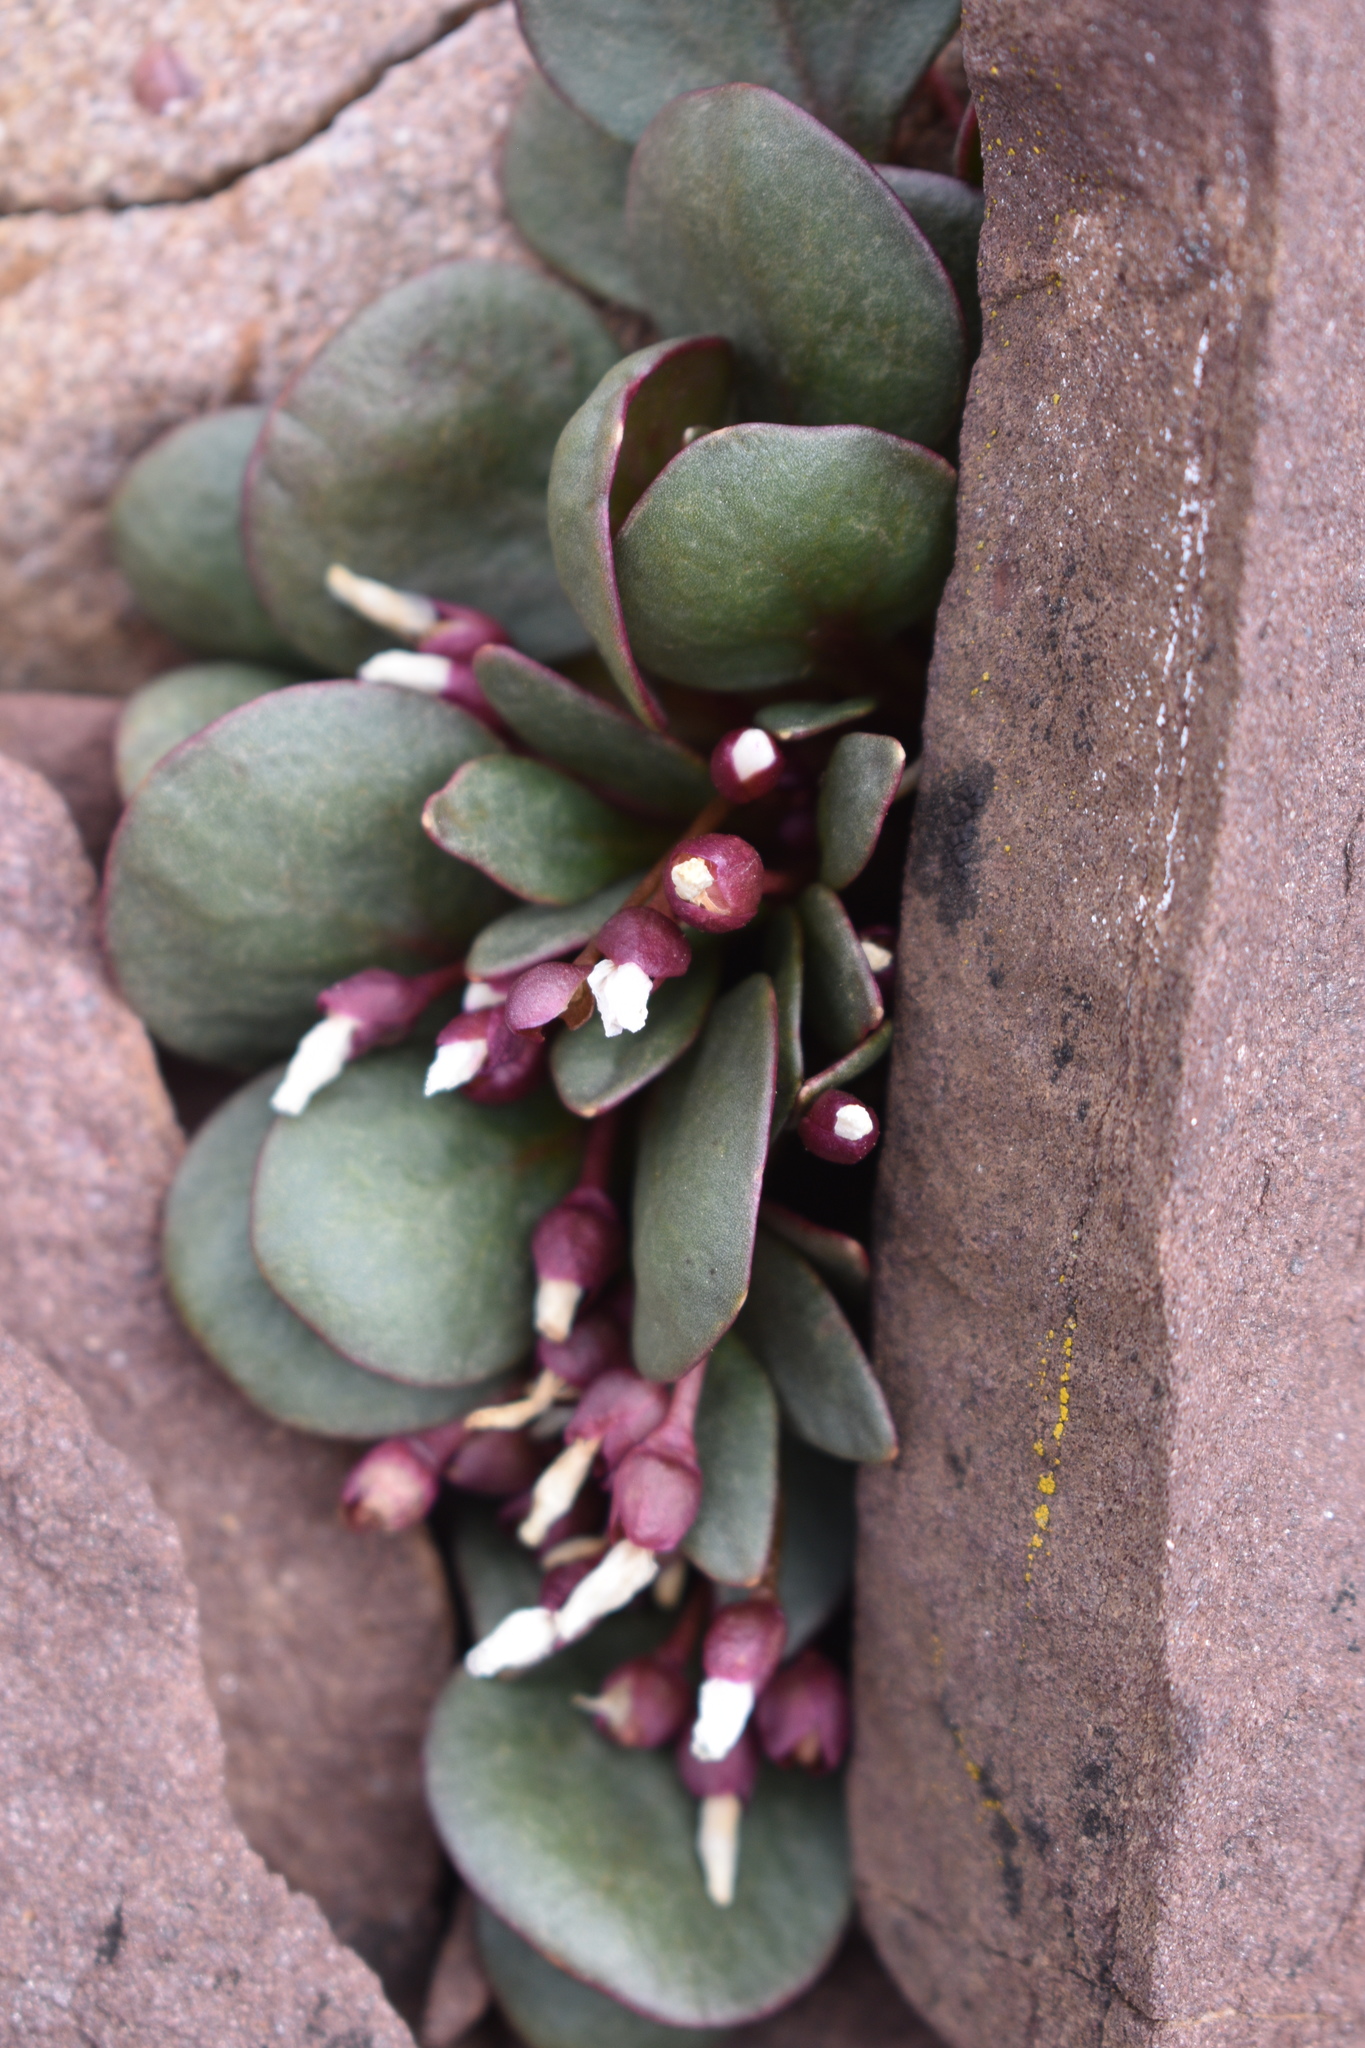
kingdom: Plantae
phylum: Tracheophyta
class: Magnoliopsida
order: Caryophyllales
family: Montiaceae
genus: Claytonia
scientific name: Claytonia megarhiza
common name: Alpine spring beauty
